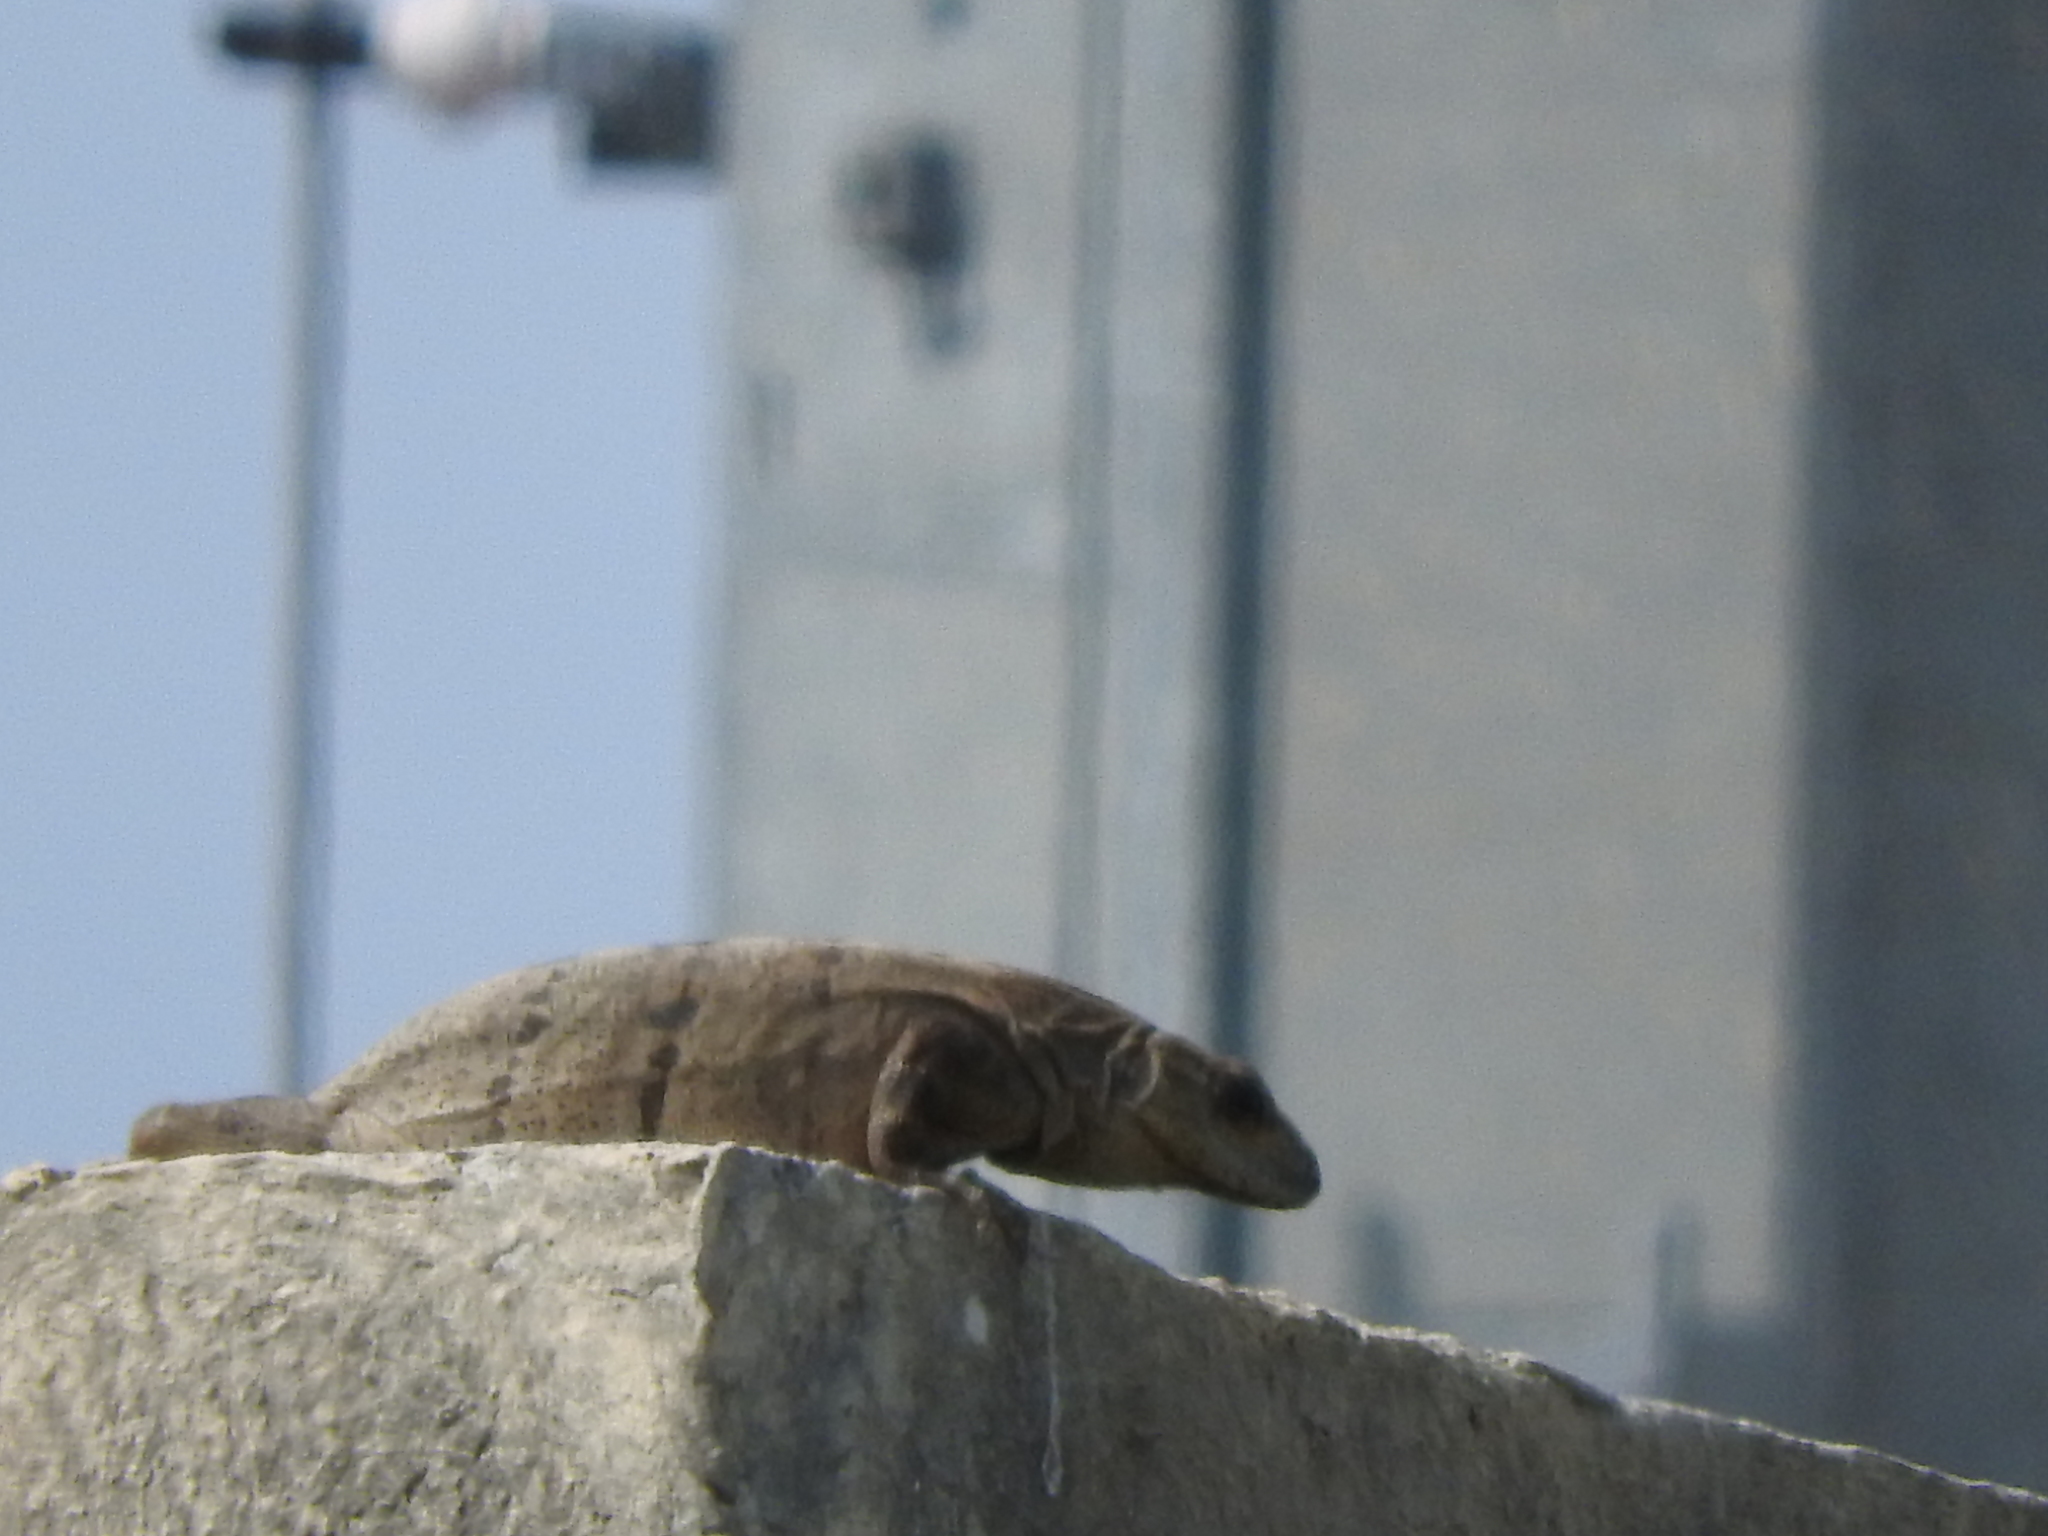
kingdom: Animalia
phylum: Chordata
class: Squamata
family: Iguanidae
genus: Ctenosaura
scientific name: Ctenosaura similis
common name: Black spiny-tailed iguana
